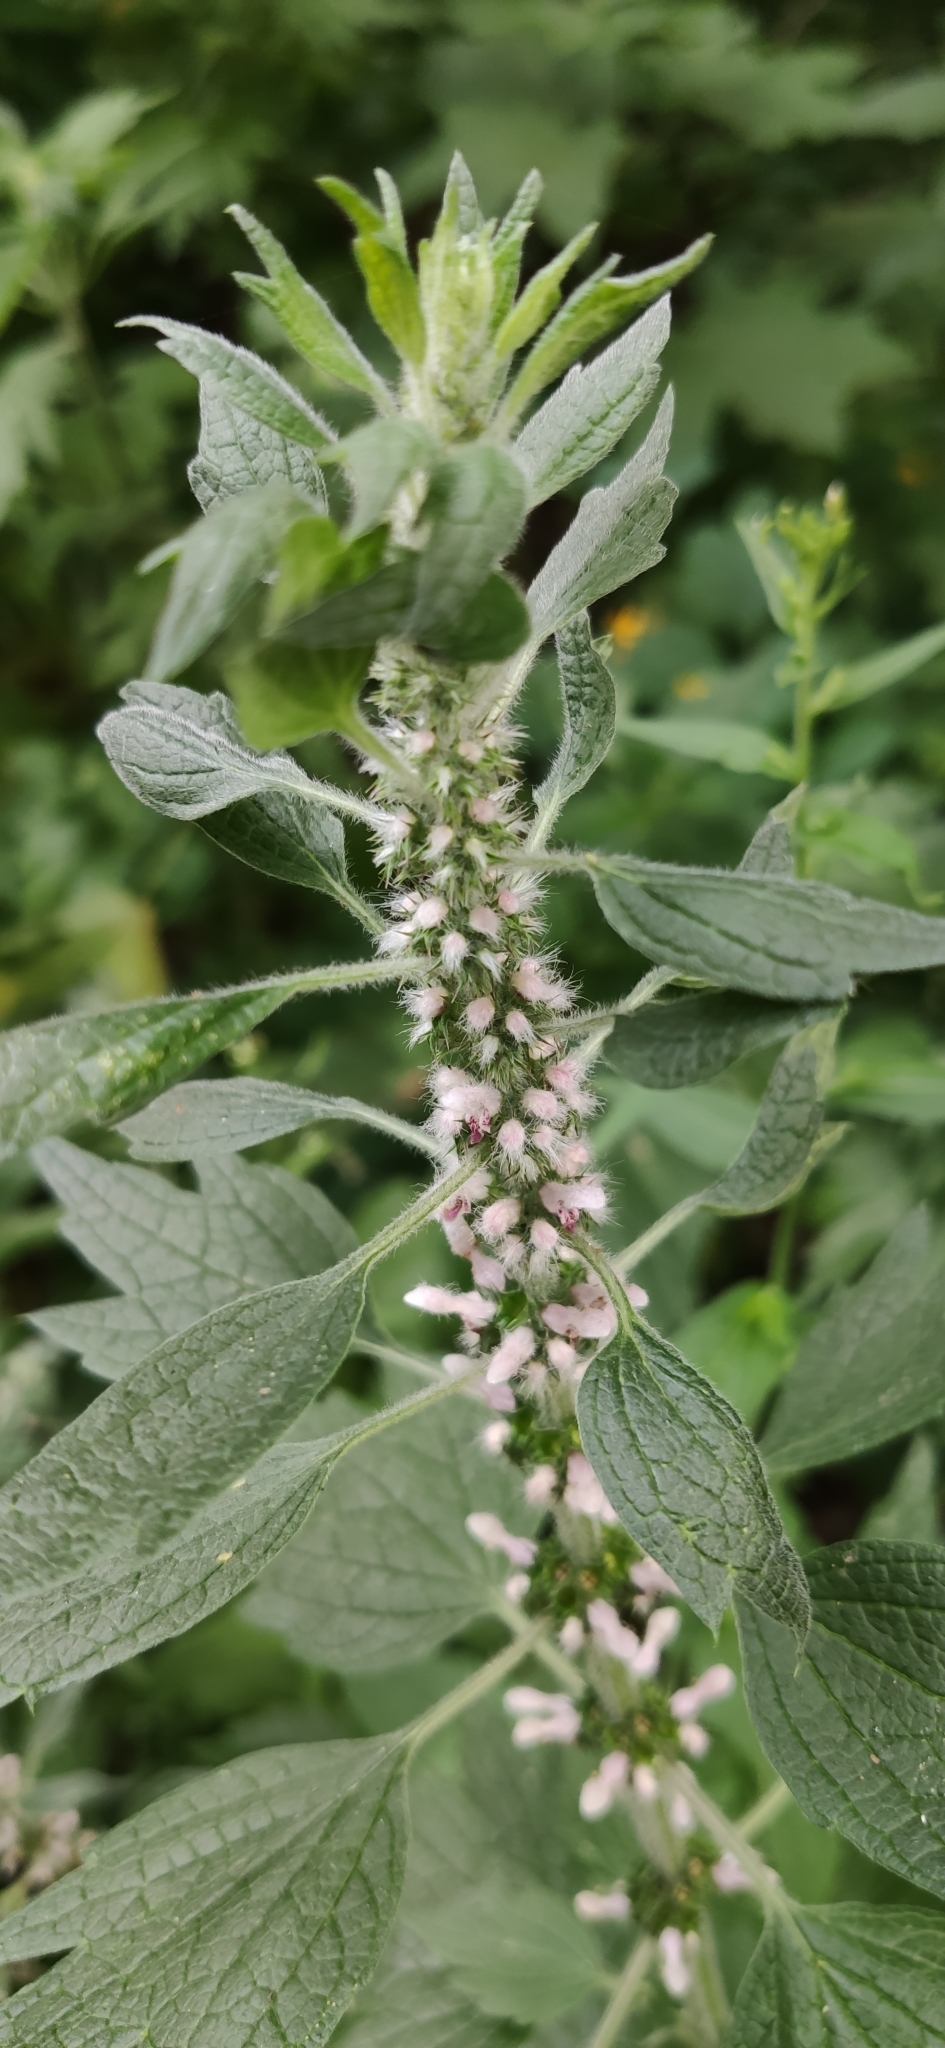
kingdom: Plantae
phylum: Tracheophyta
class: Magnoliopsida
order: Lamiales
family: Lamiaceae
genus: Leonurus
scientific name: Leonurus quinquelobatus
